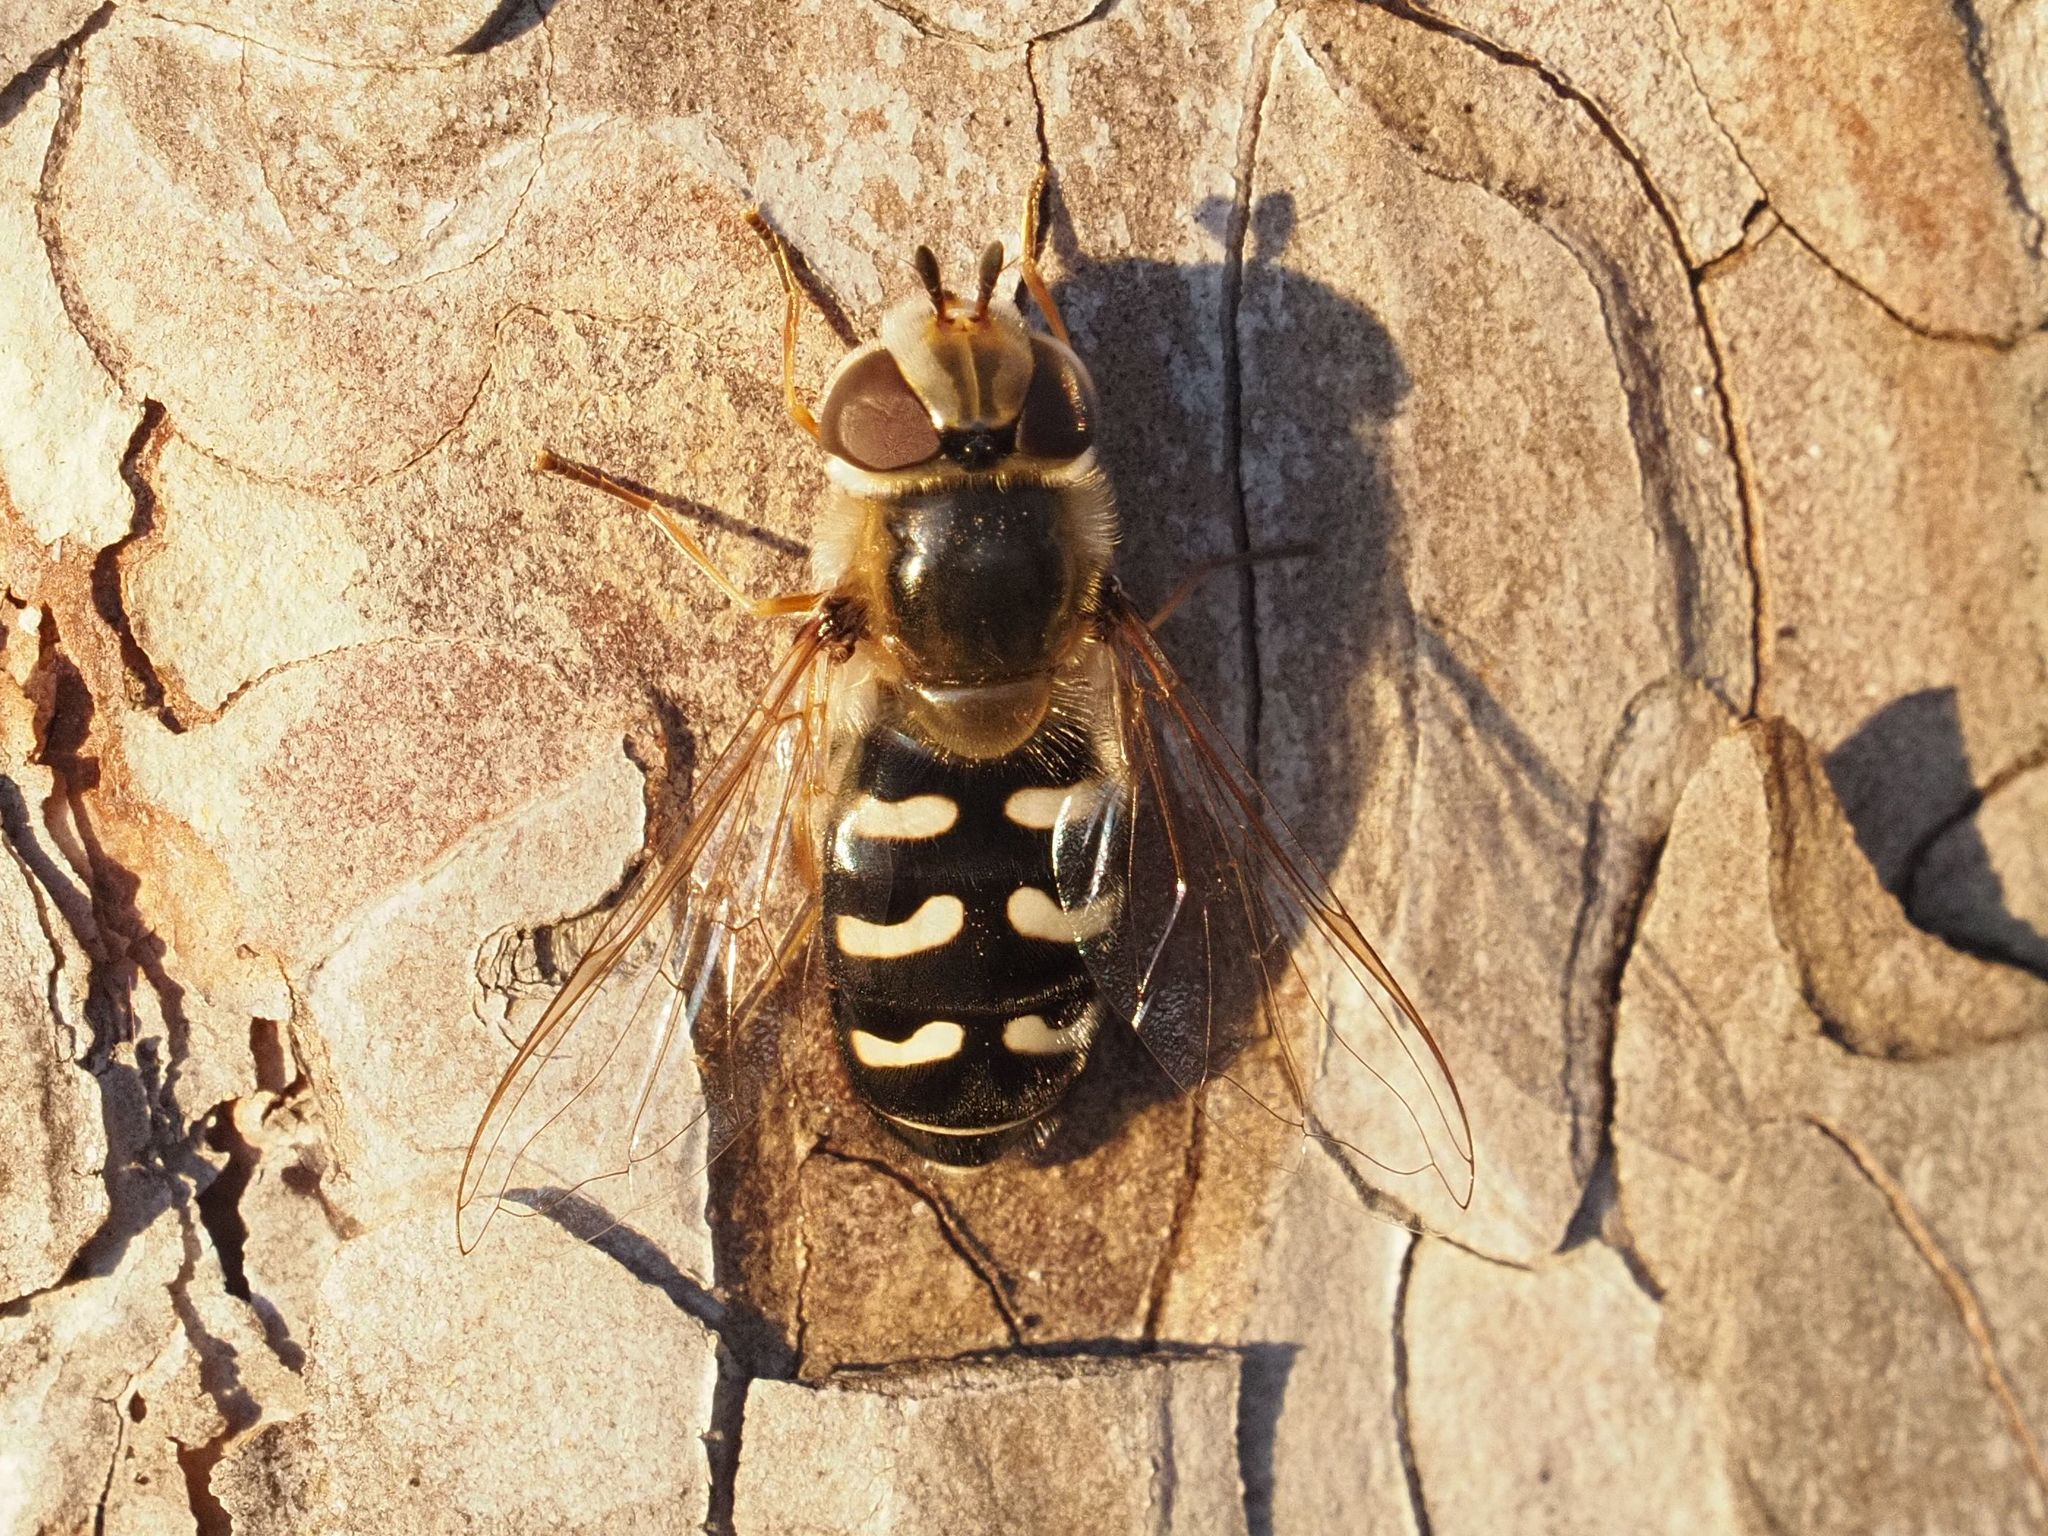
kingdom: Animalia
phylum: Arthropoda
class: Insecta
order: Diptera
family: Syrphidae
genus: Scaeva
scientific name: Scaeva pyrastri
